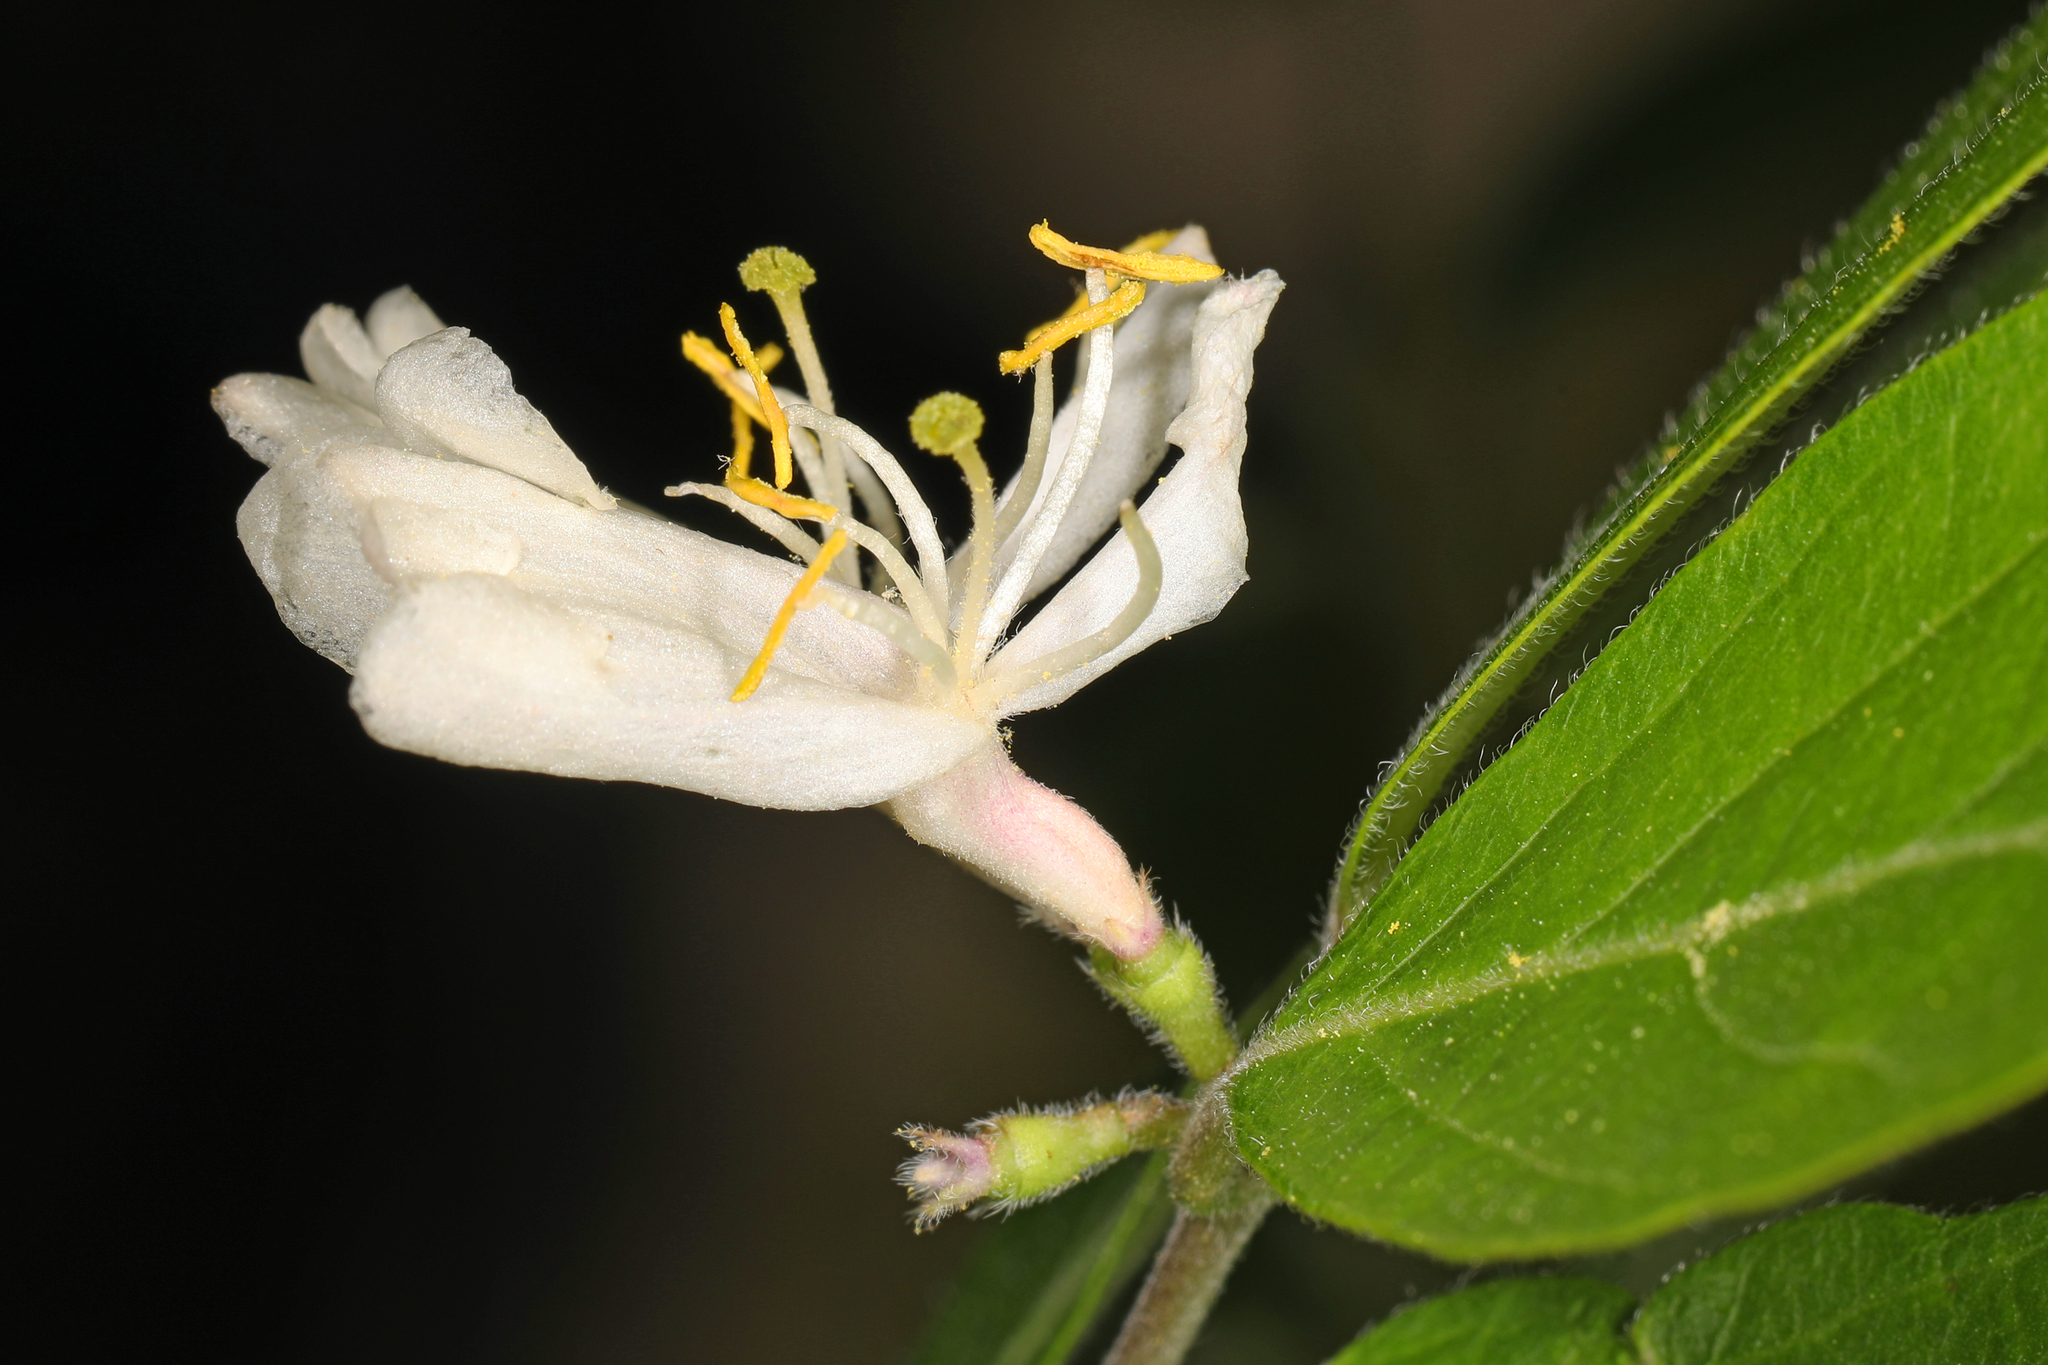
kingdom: Plantae
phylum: Tracheophyta
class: Magnoliopsida
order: Dipsacales
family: Caprifoliaceae
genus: Lonicera
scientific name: Lonicera maackii
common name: Amur honeysuckle
